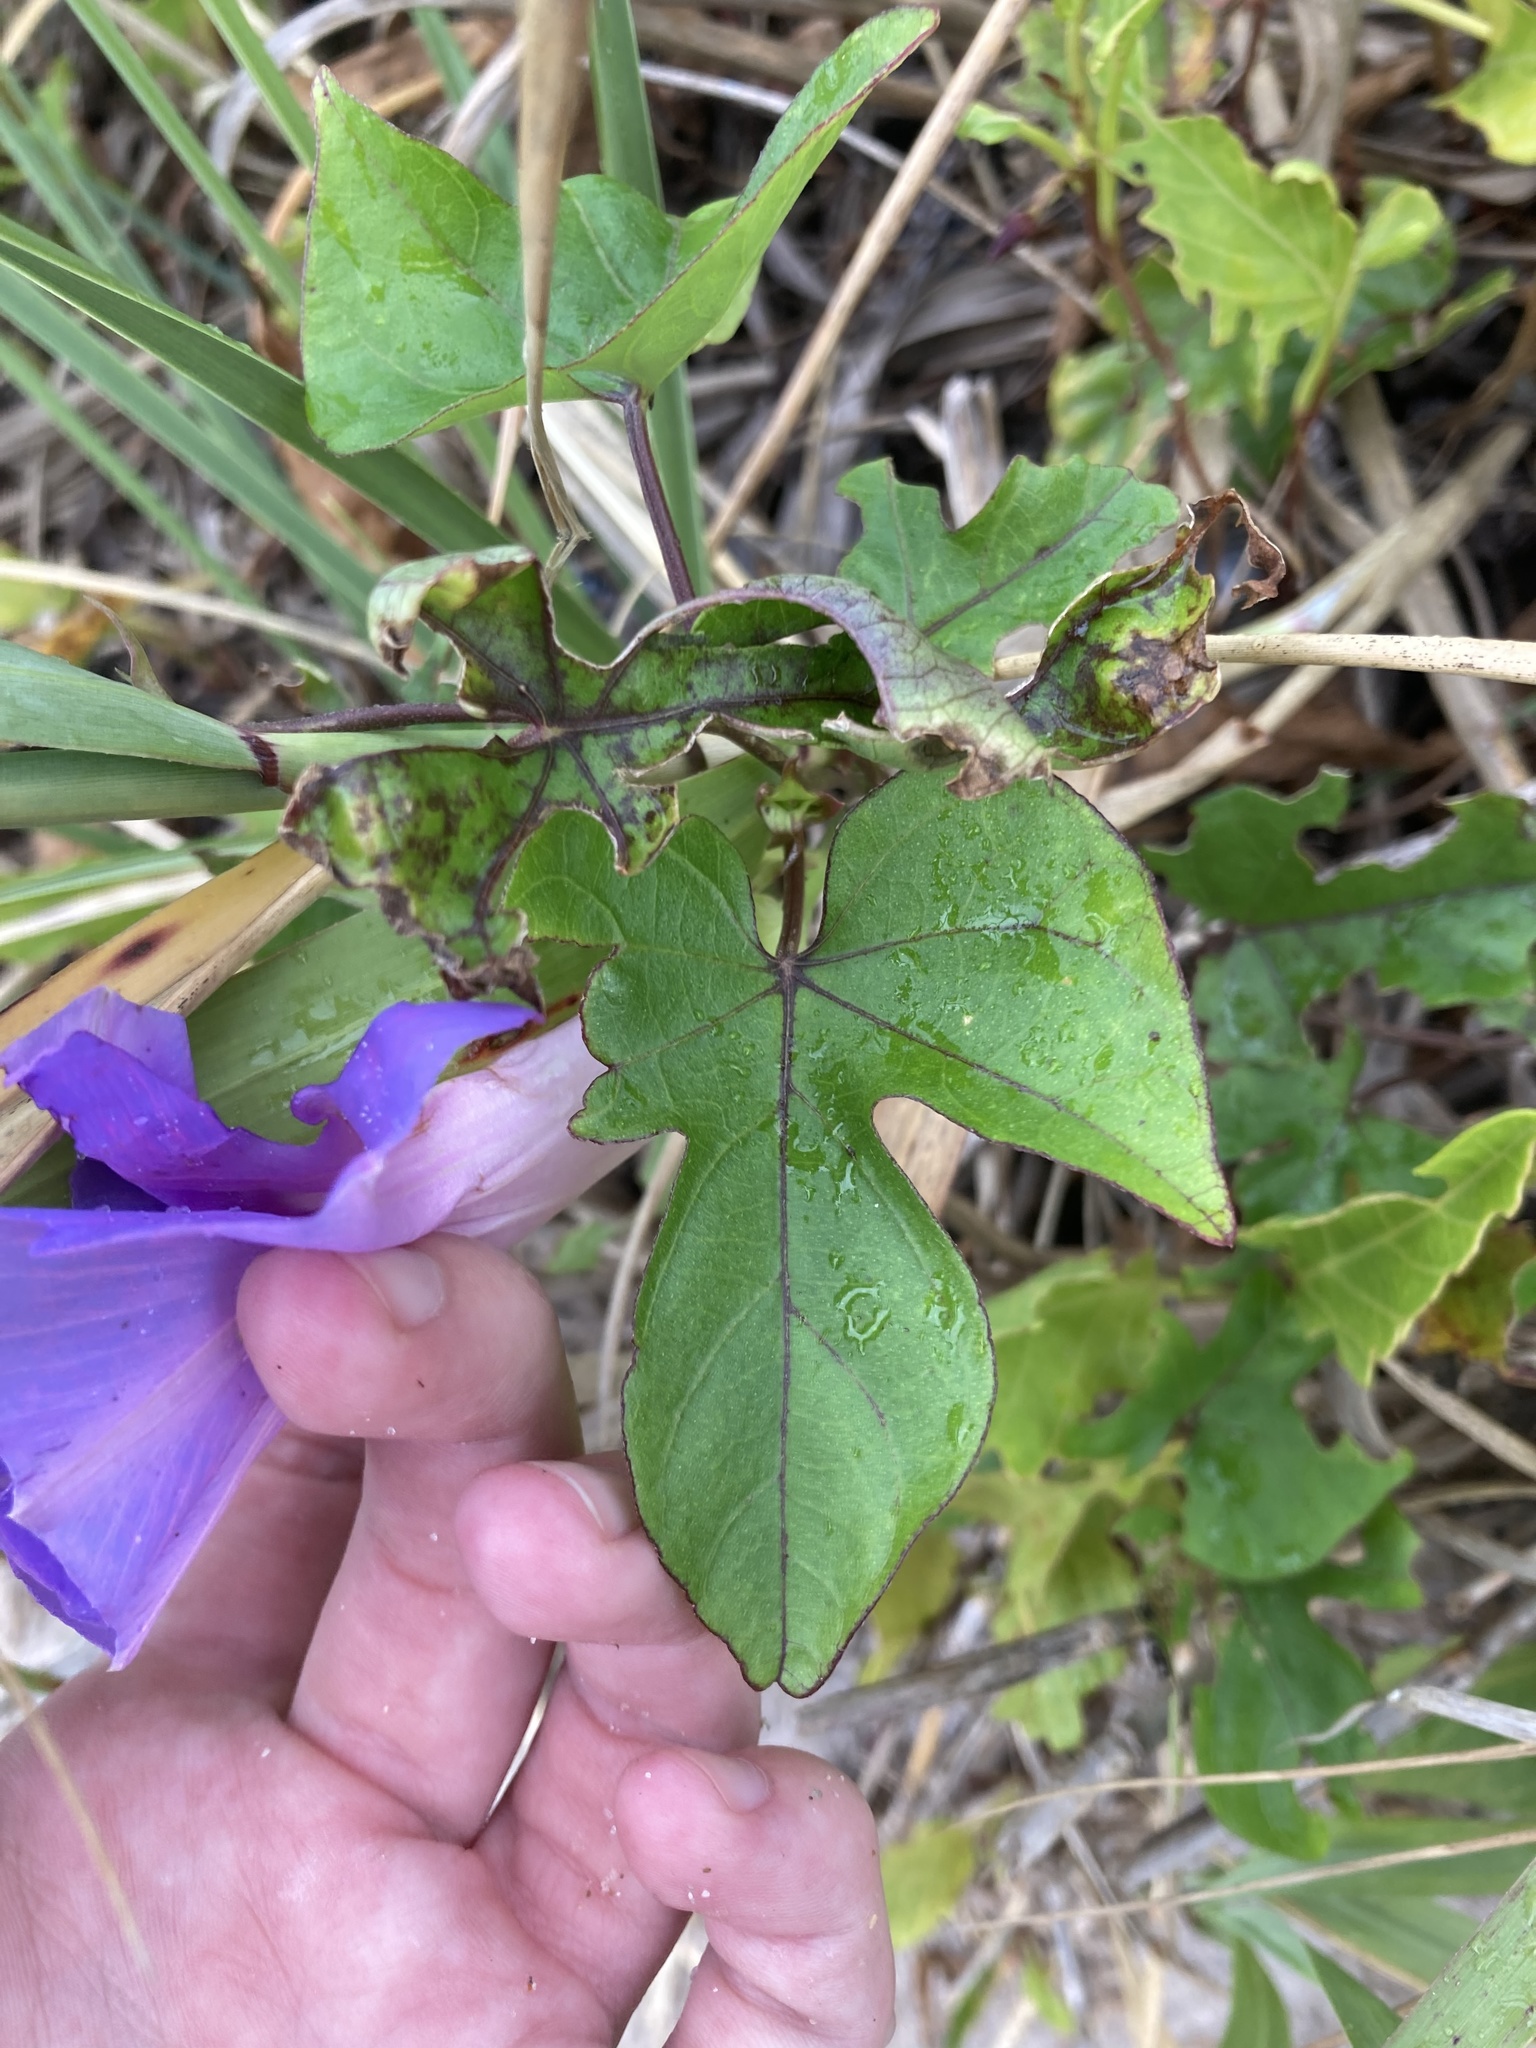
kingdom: Plantae
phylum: Tracheophyta
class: Magnoliopsida
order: Solanales
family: Convolvulaceae
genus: Ipomoea
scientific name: Ipomoea indica
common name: Blue dawnflower
